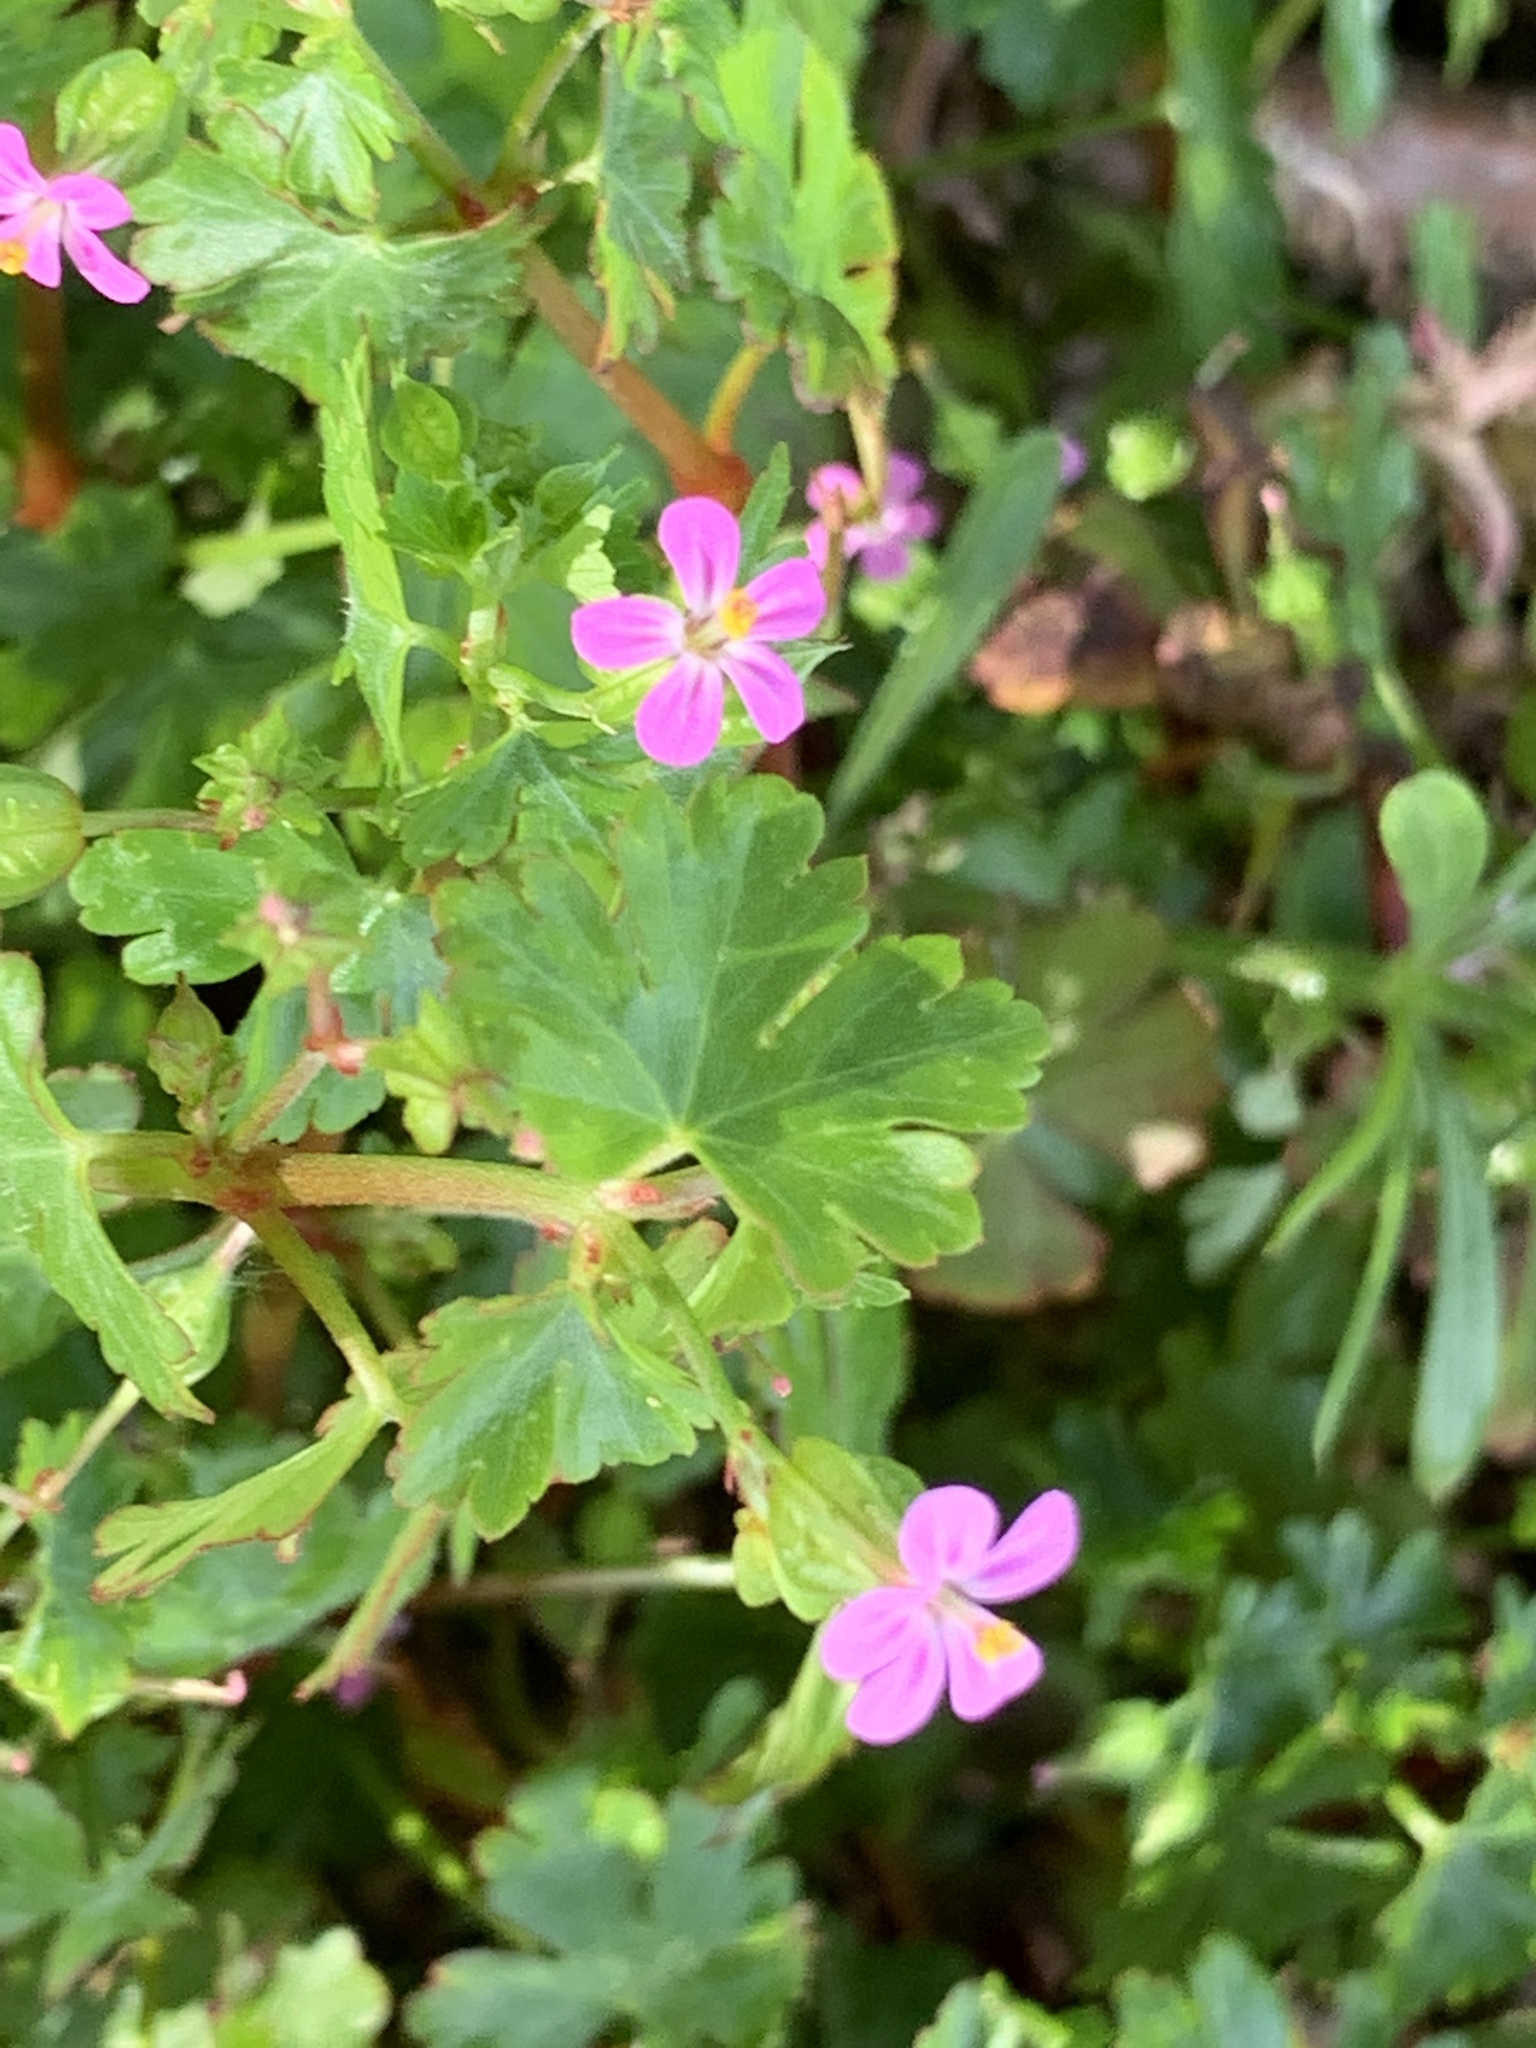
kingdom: Plantae
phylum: Tracheophyta
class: Magnoliopsida
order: Geraniales
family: Geraniaceae
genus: Geranium
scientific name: Geranium lucidum
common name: Shining crane's-bill
